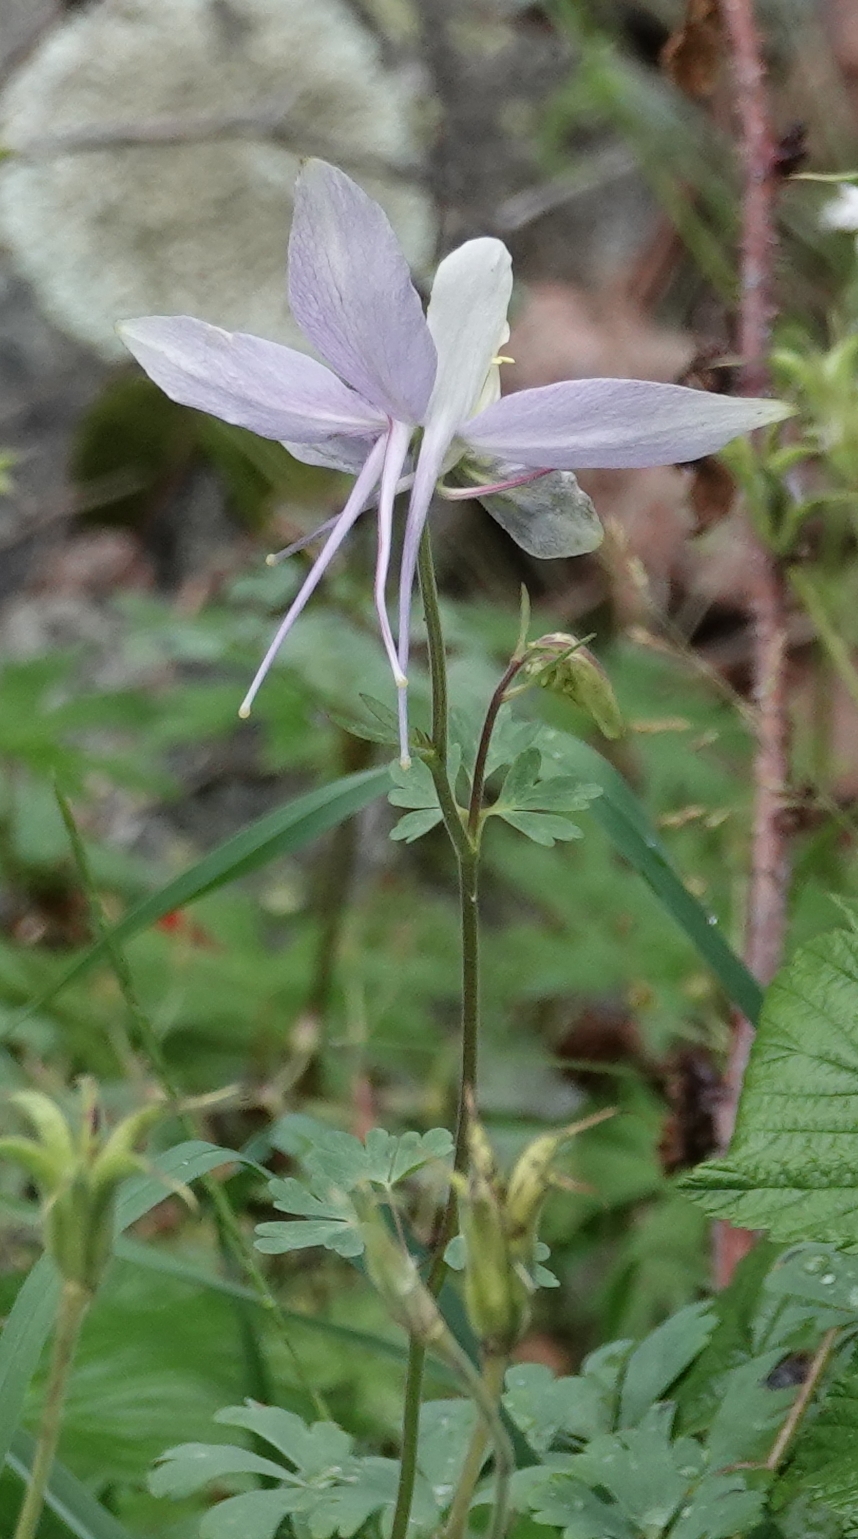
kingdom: Plantae
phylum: Tracheophyta
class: Magnoliopsida
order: Ranunculales
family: Ranunculaceae
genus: Aquilegia
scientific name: Aquilegia coerulea
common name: Rocky mountain columbine
